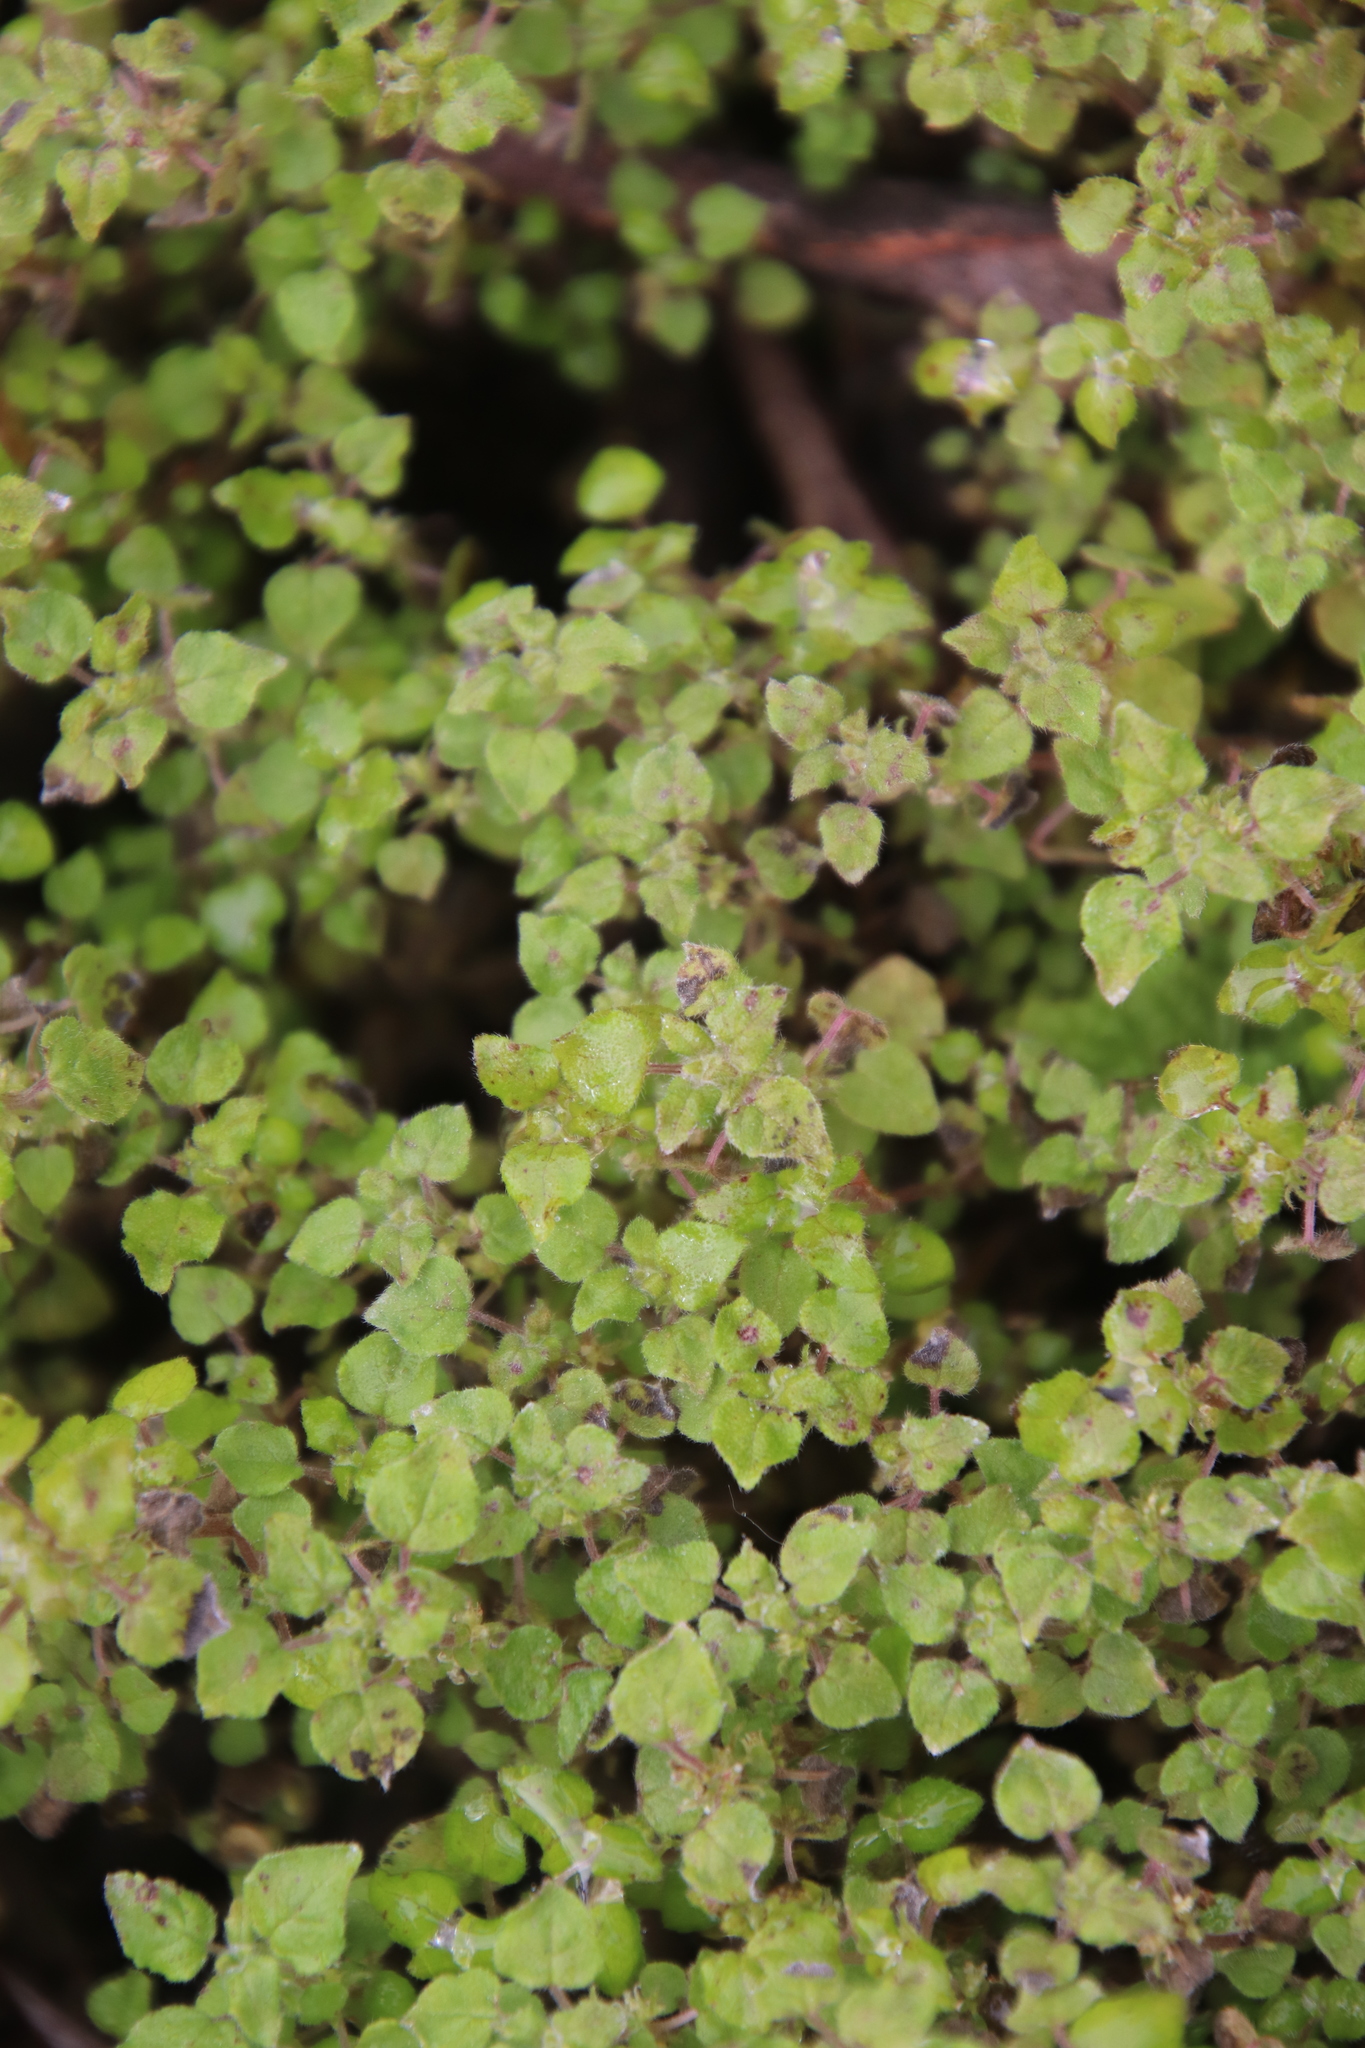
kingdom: Plantae
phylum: Tracheophyta
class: Magnoliopsida
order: Rosales
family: Urticaceae
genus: Parietaria
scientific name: Parietaria hespera
